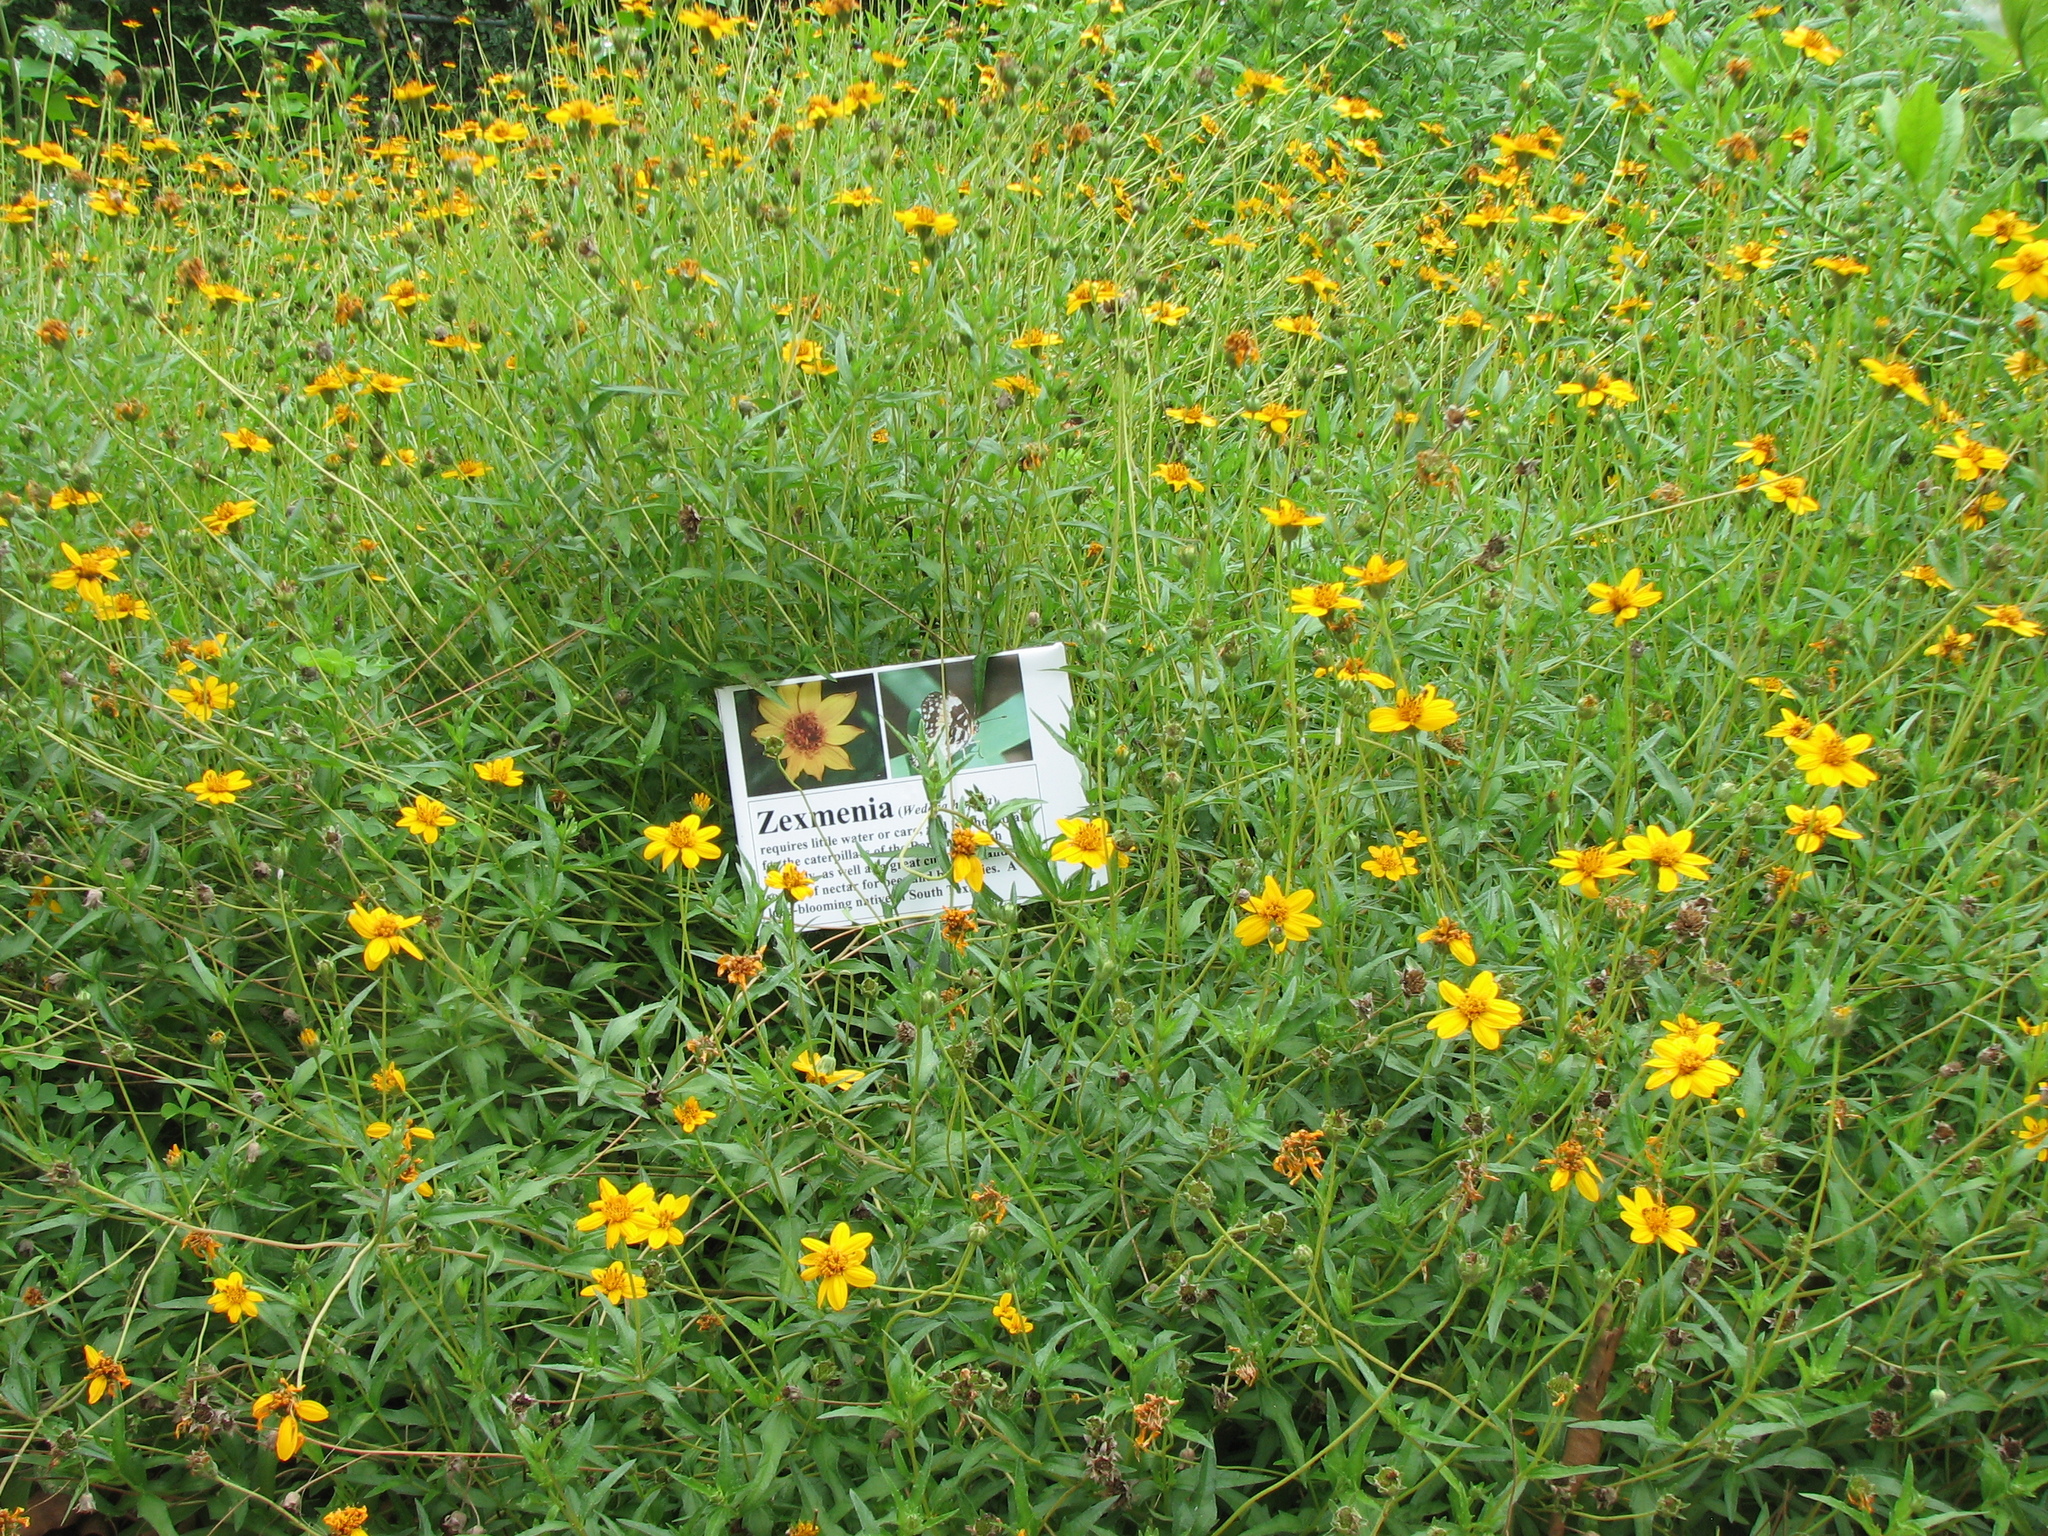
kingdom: Plantae
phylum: Tracheophyta
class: Magnoliopsida
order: Asterales
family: Asteraceae
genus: Wedelia
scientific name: Wedelia acapulcensis
